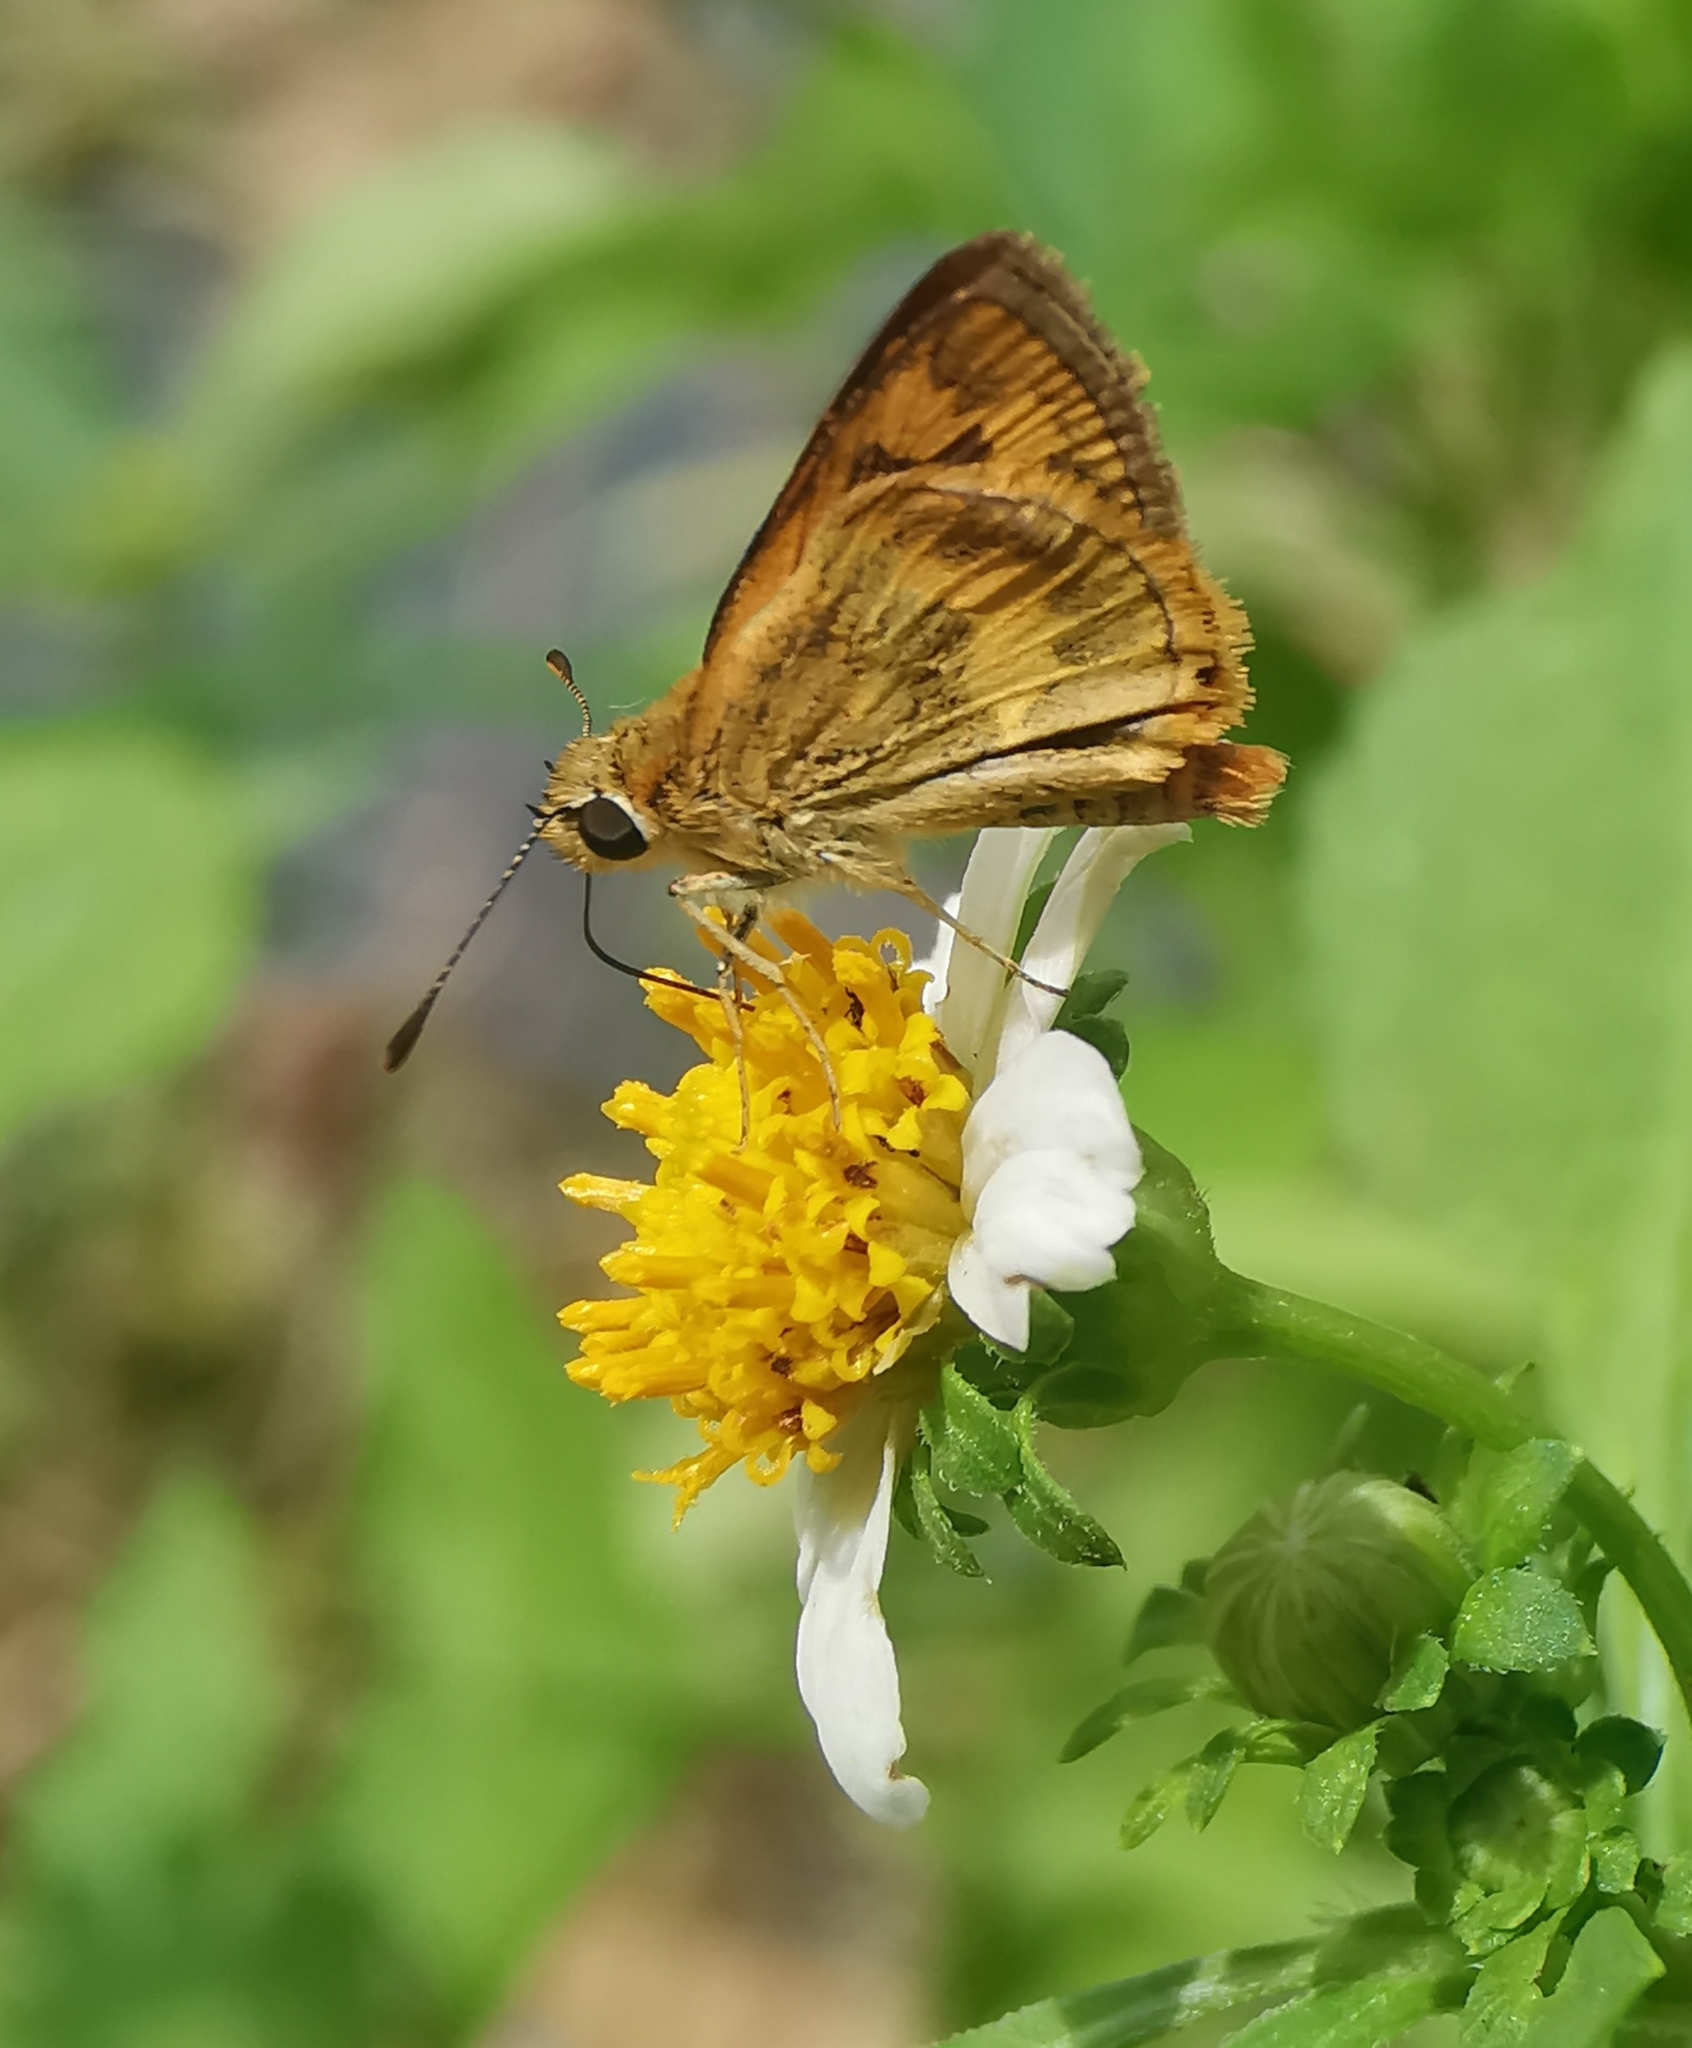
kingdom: Animalia
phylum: Arthropoda
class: Insecta
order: Lepidoptera
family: Hesperiidae
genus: Taractrocera
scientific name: Taractrocera archias
